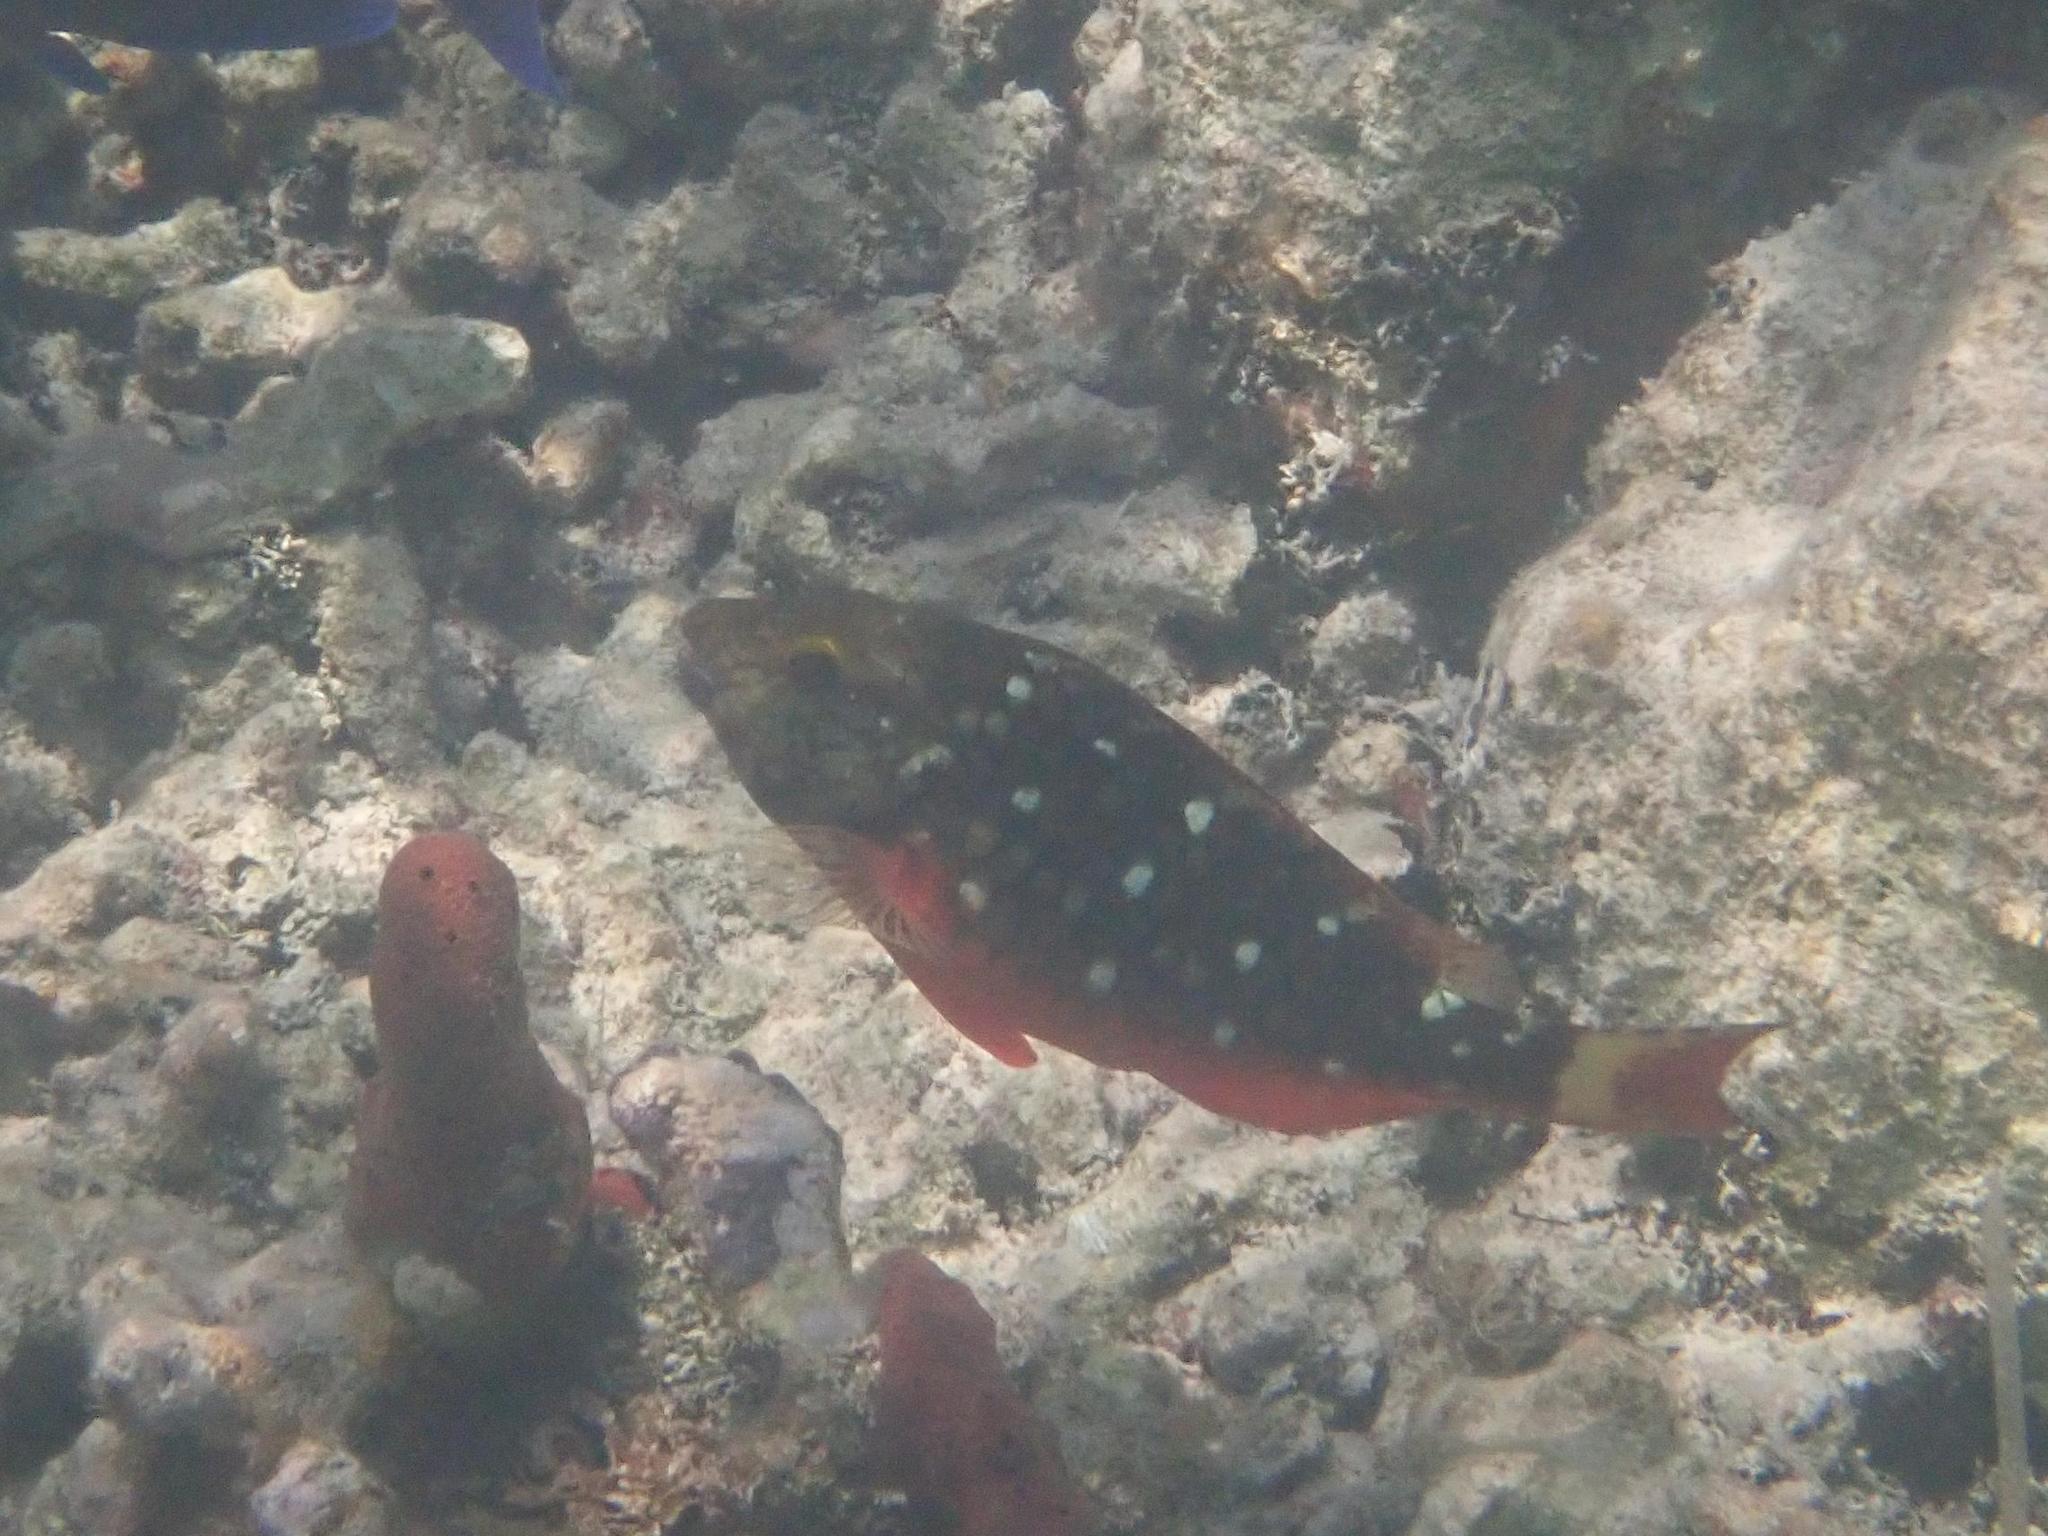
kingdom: Animalia
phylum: Chordata
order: Perciformes
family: Scaridae
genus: Sparisoma
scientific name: Sparisoma viride
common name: Stoplight parrotfish
